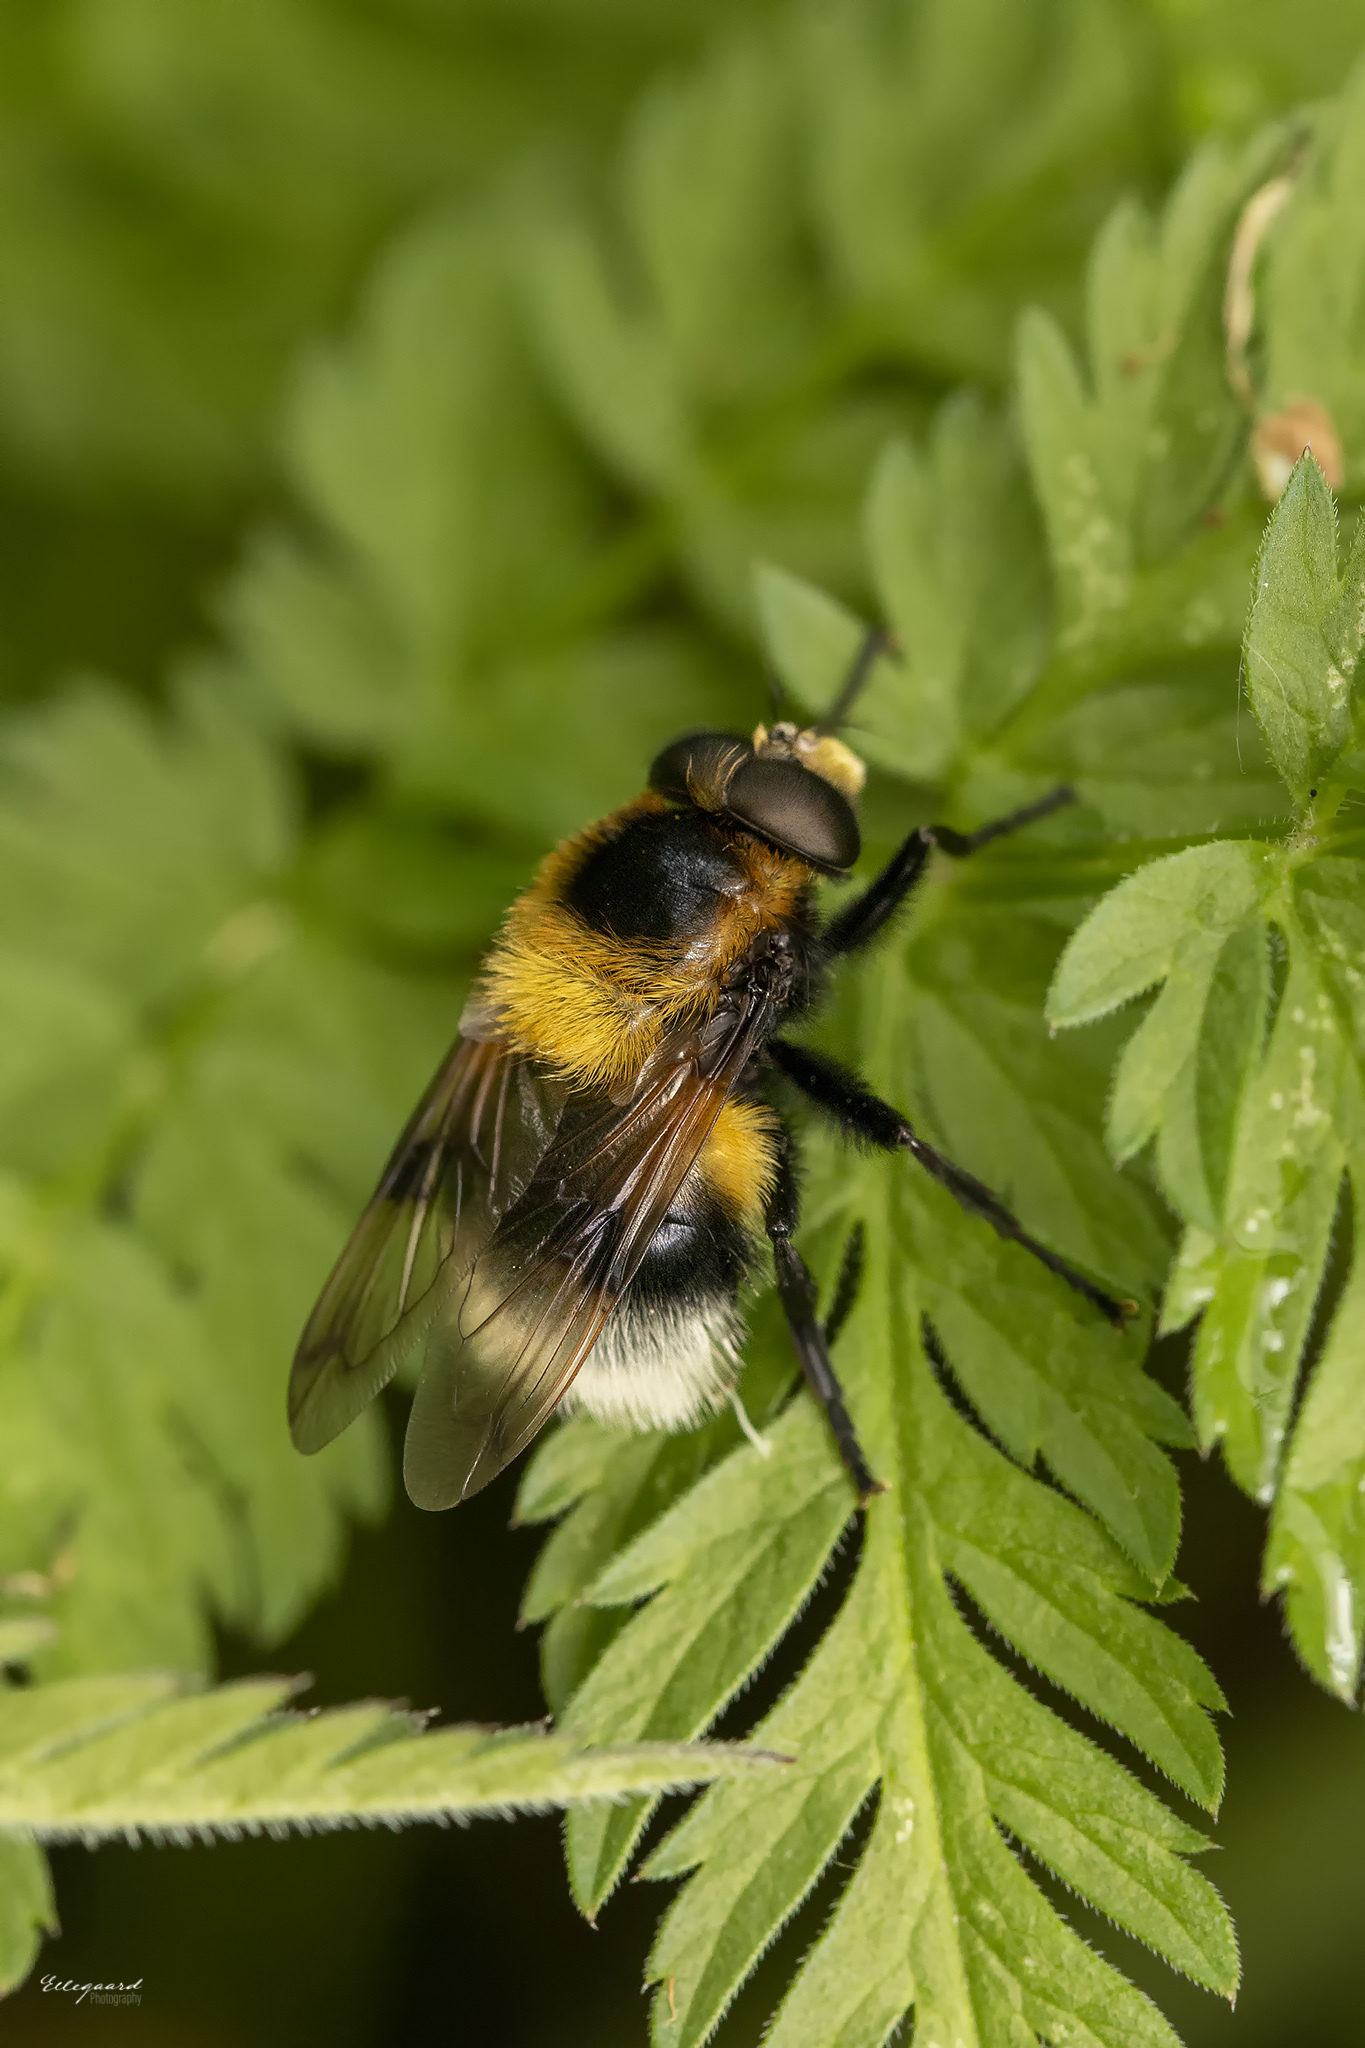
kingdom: Animalia
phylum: Arthropoda
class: Insecta
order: Diptera
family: Syrphidae
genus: Volucella
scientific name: Volucella bombylans
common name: Bumble bee hover fly
